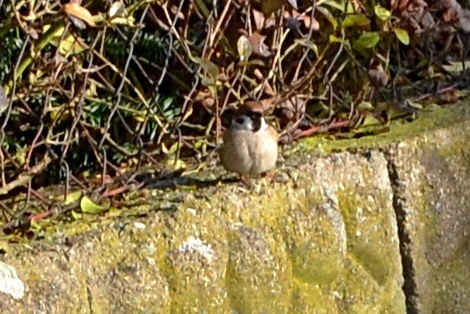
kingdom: Animalia
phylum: Chordata
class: Aves
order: Passeriformes
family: Passeridae
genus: Passer
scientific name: Passer montanus
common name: Eurasian tree sparrow
